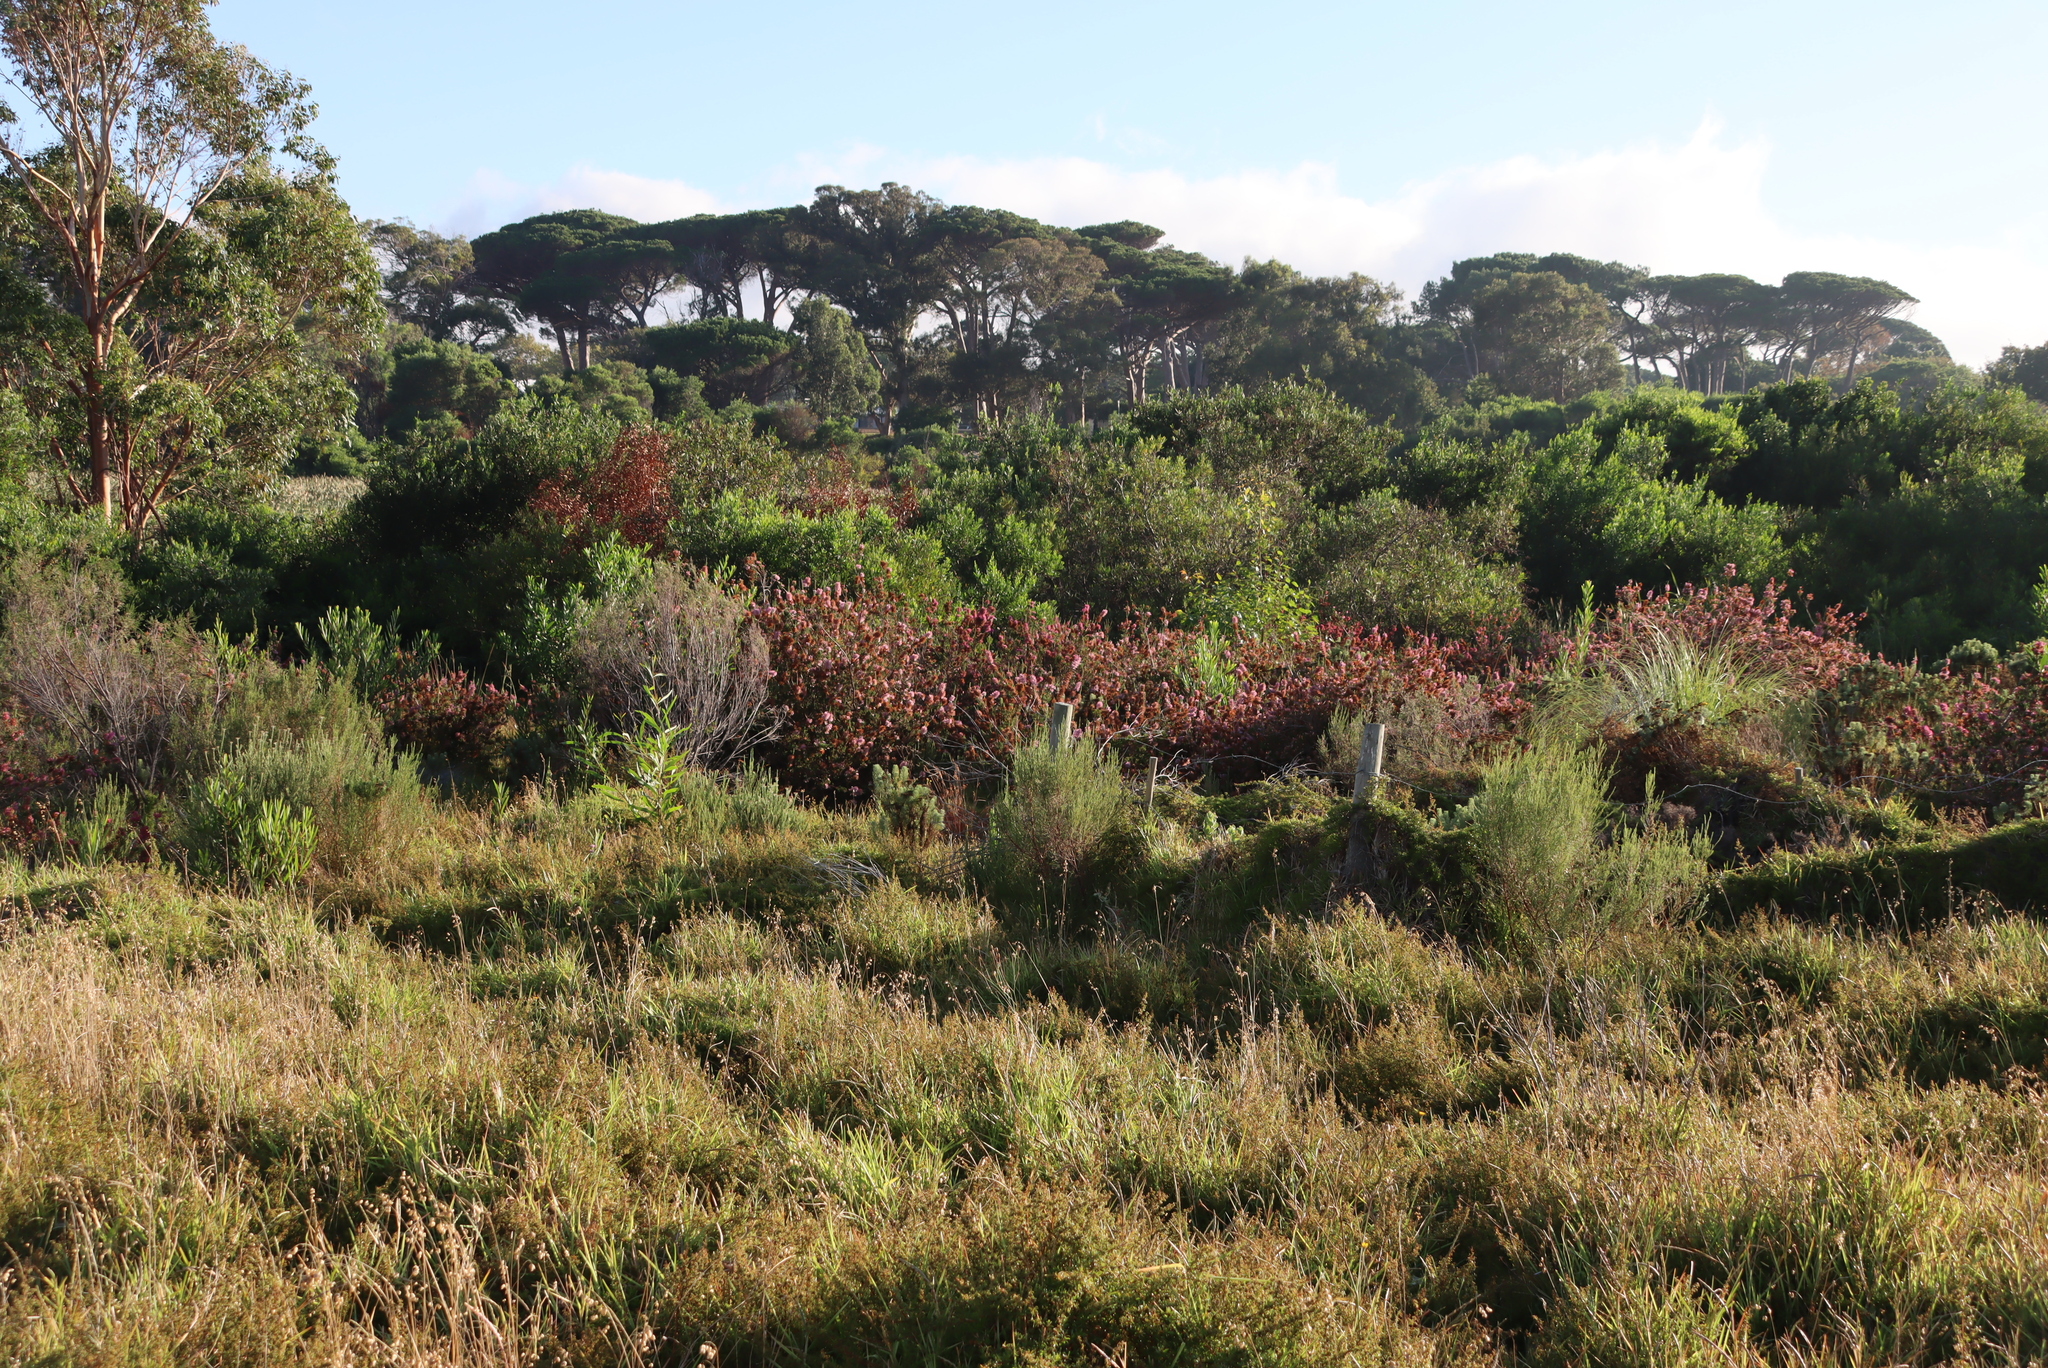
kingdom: Plantae
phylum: Tracheophyta
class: Magnoliopsida
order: Ericales
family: Ericaceae
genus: Erica
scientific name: Erica verticillata
